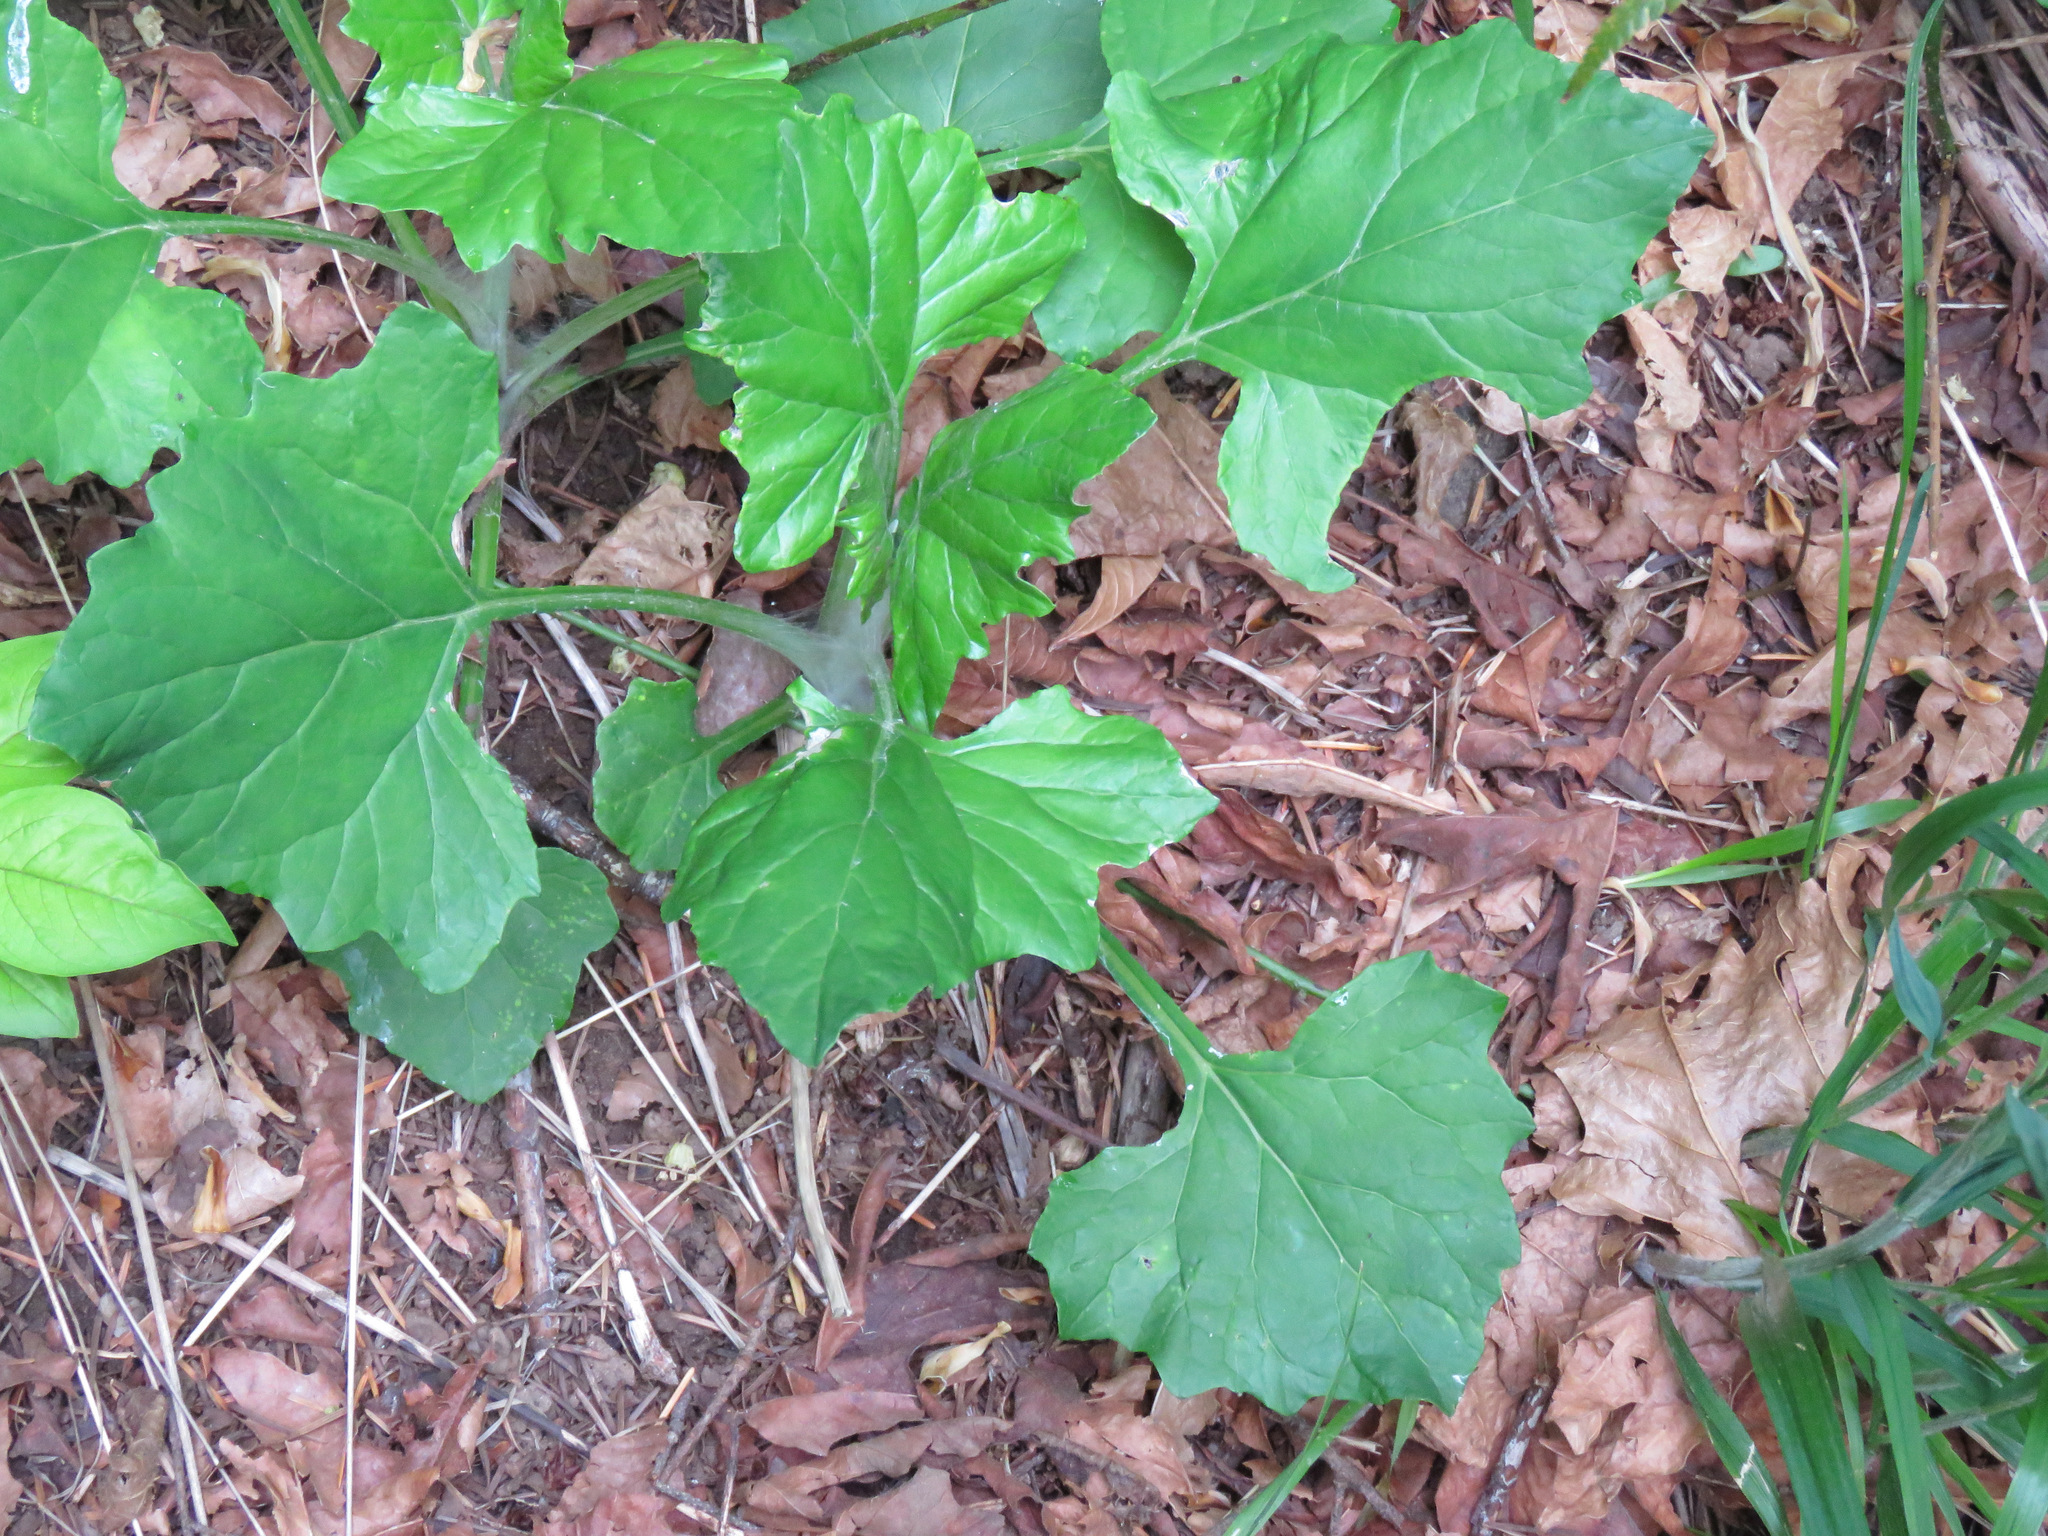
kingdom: Plantae
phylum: Tracheophyta
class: Magnoliopsida
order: Asterales
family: Asteraceae
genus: Adenocaulon
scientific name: Adenocaulon bicolor
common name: Trailplant
